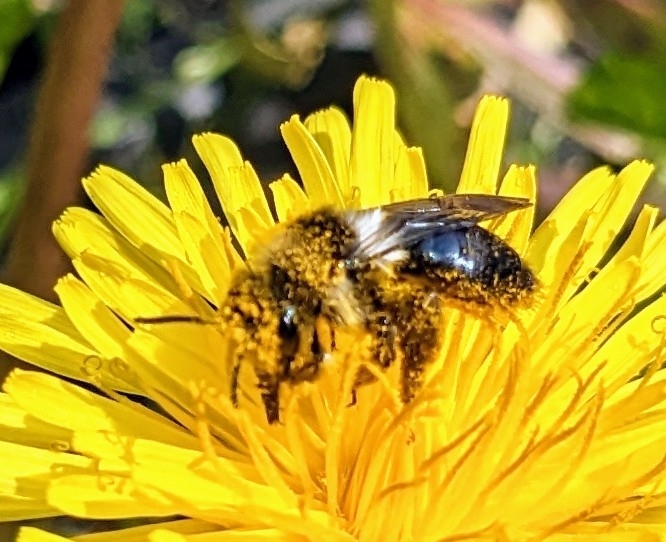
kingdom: Animalia
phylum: Arthropoda
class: Insecta
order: Hymenoptera
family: Andrenidae
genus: Andrena
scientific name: Andrena cineraria
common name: Ashy mining bee
